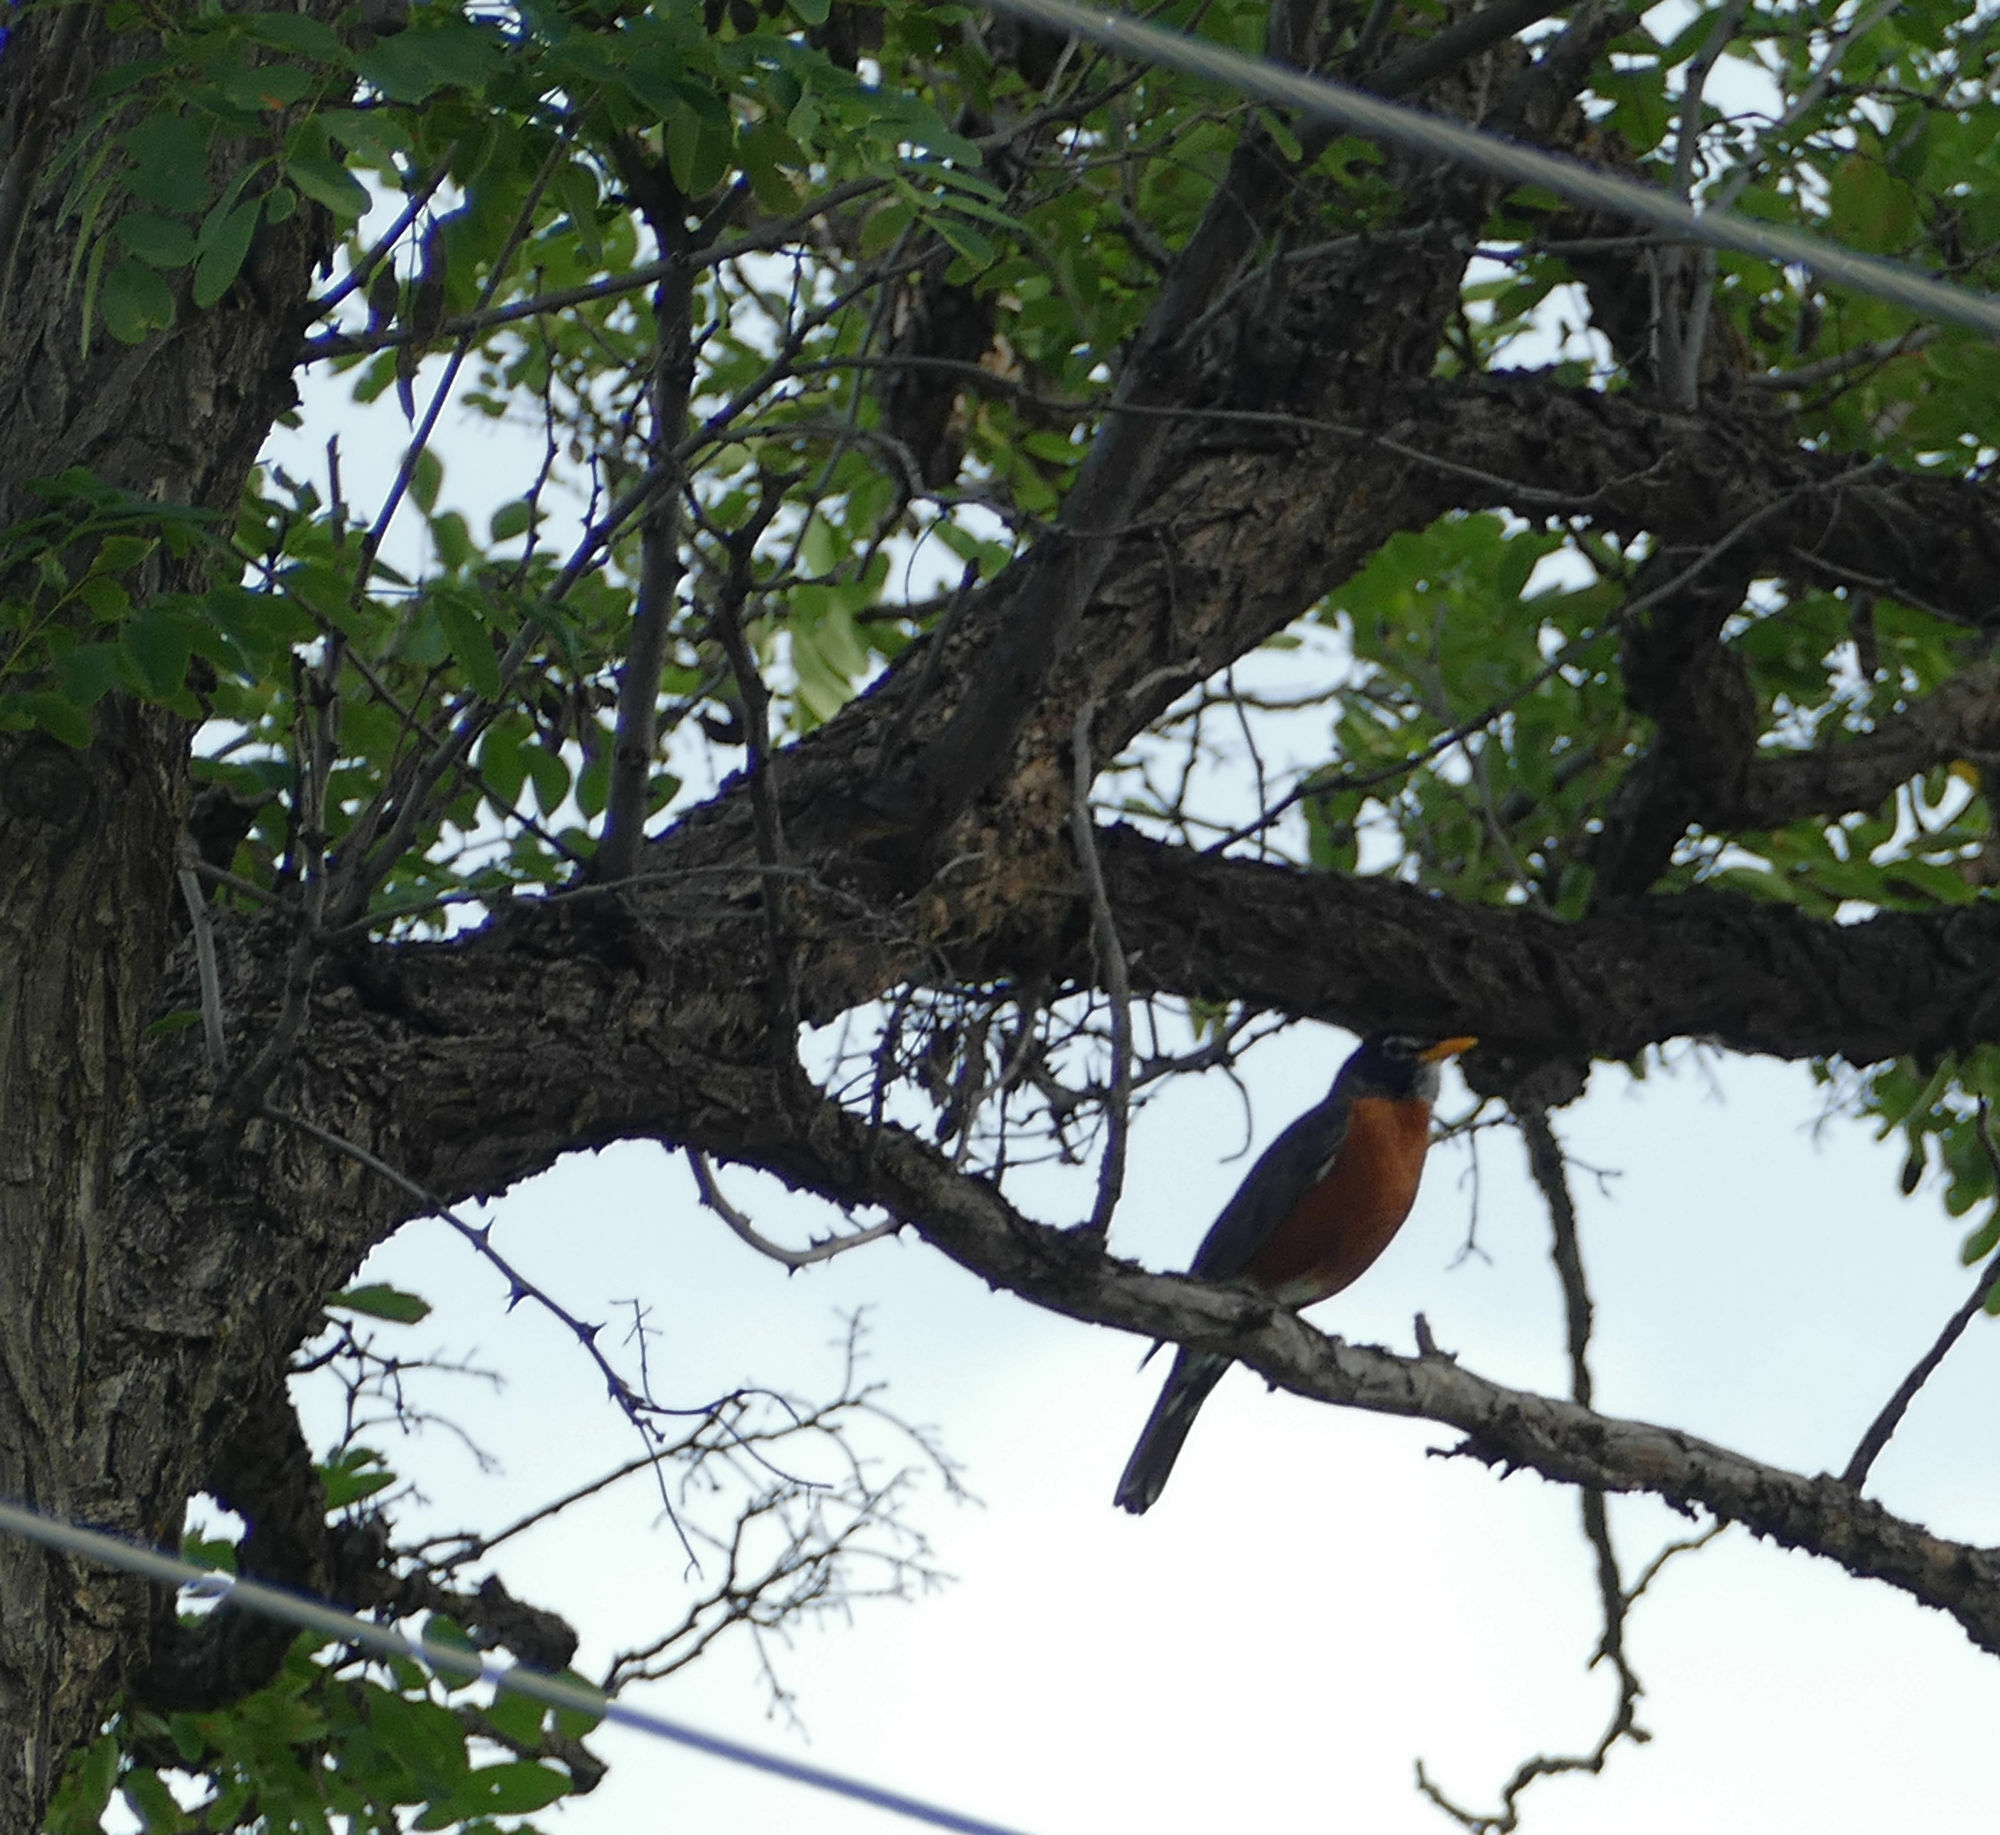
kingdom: Animalia
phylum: Chordata
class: Aves
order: Passeriformes
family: Turdidae
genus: Turdus
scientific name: Turdus migratorius
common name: American robin
